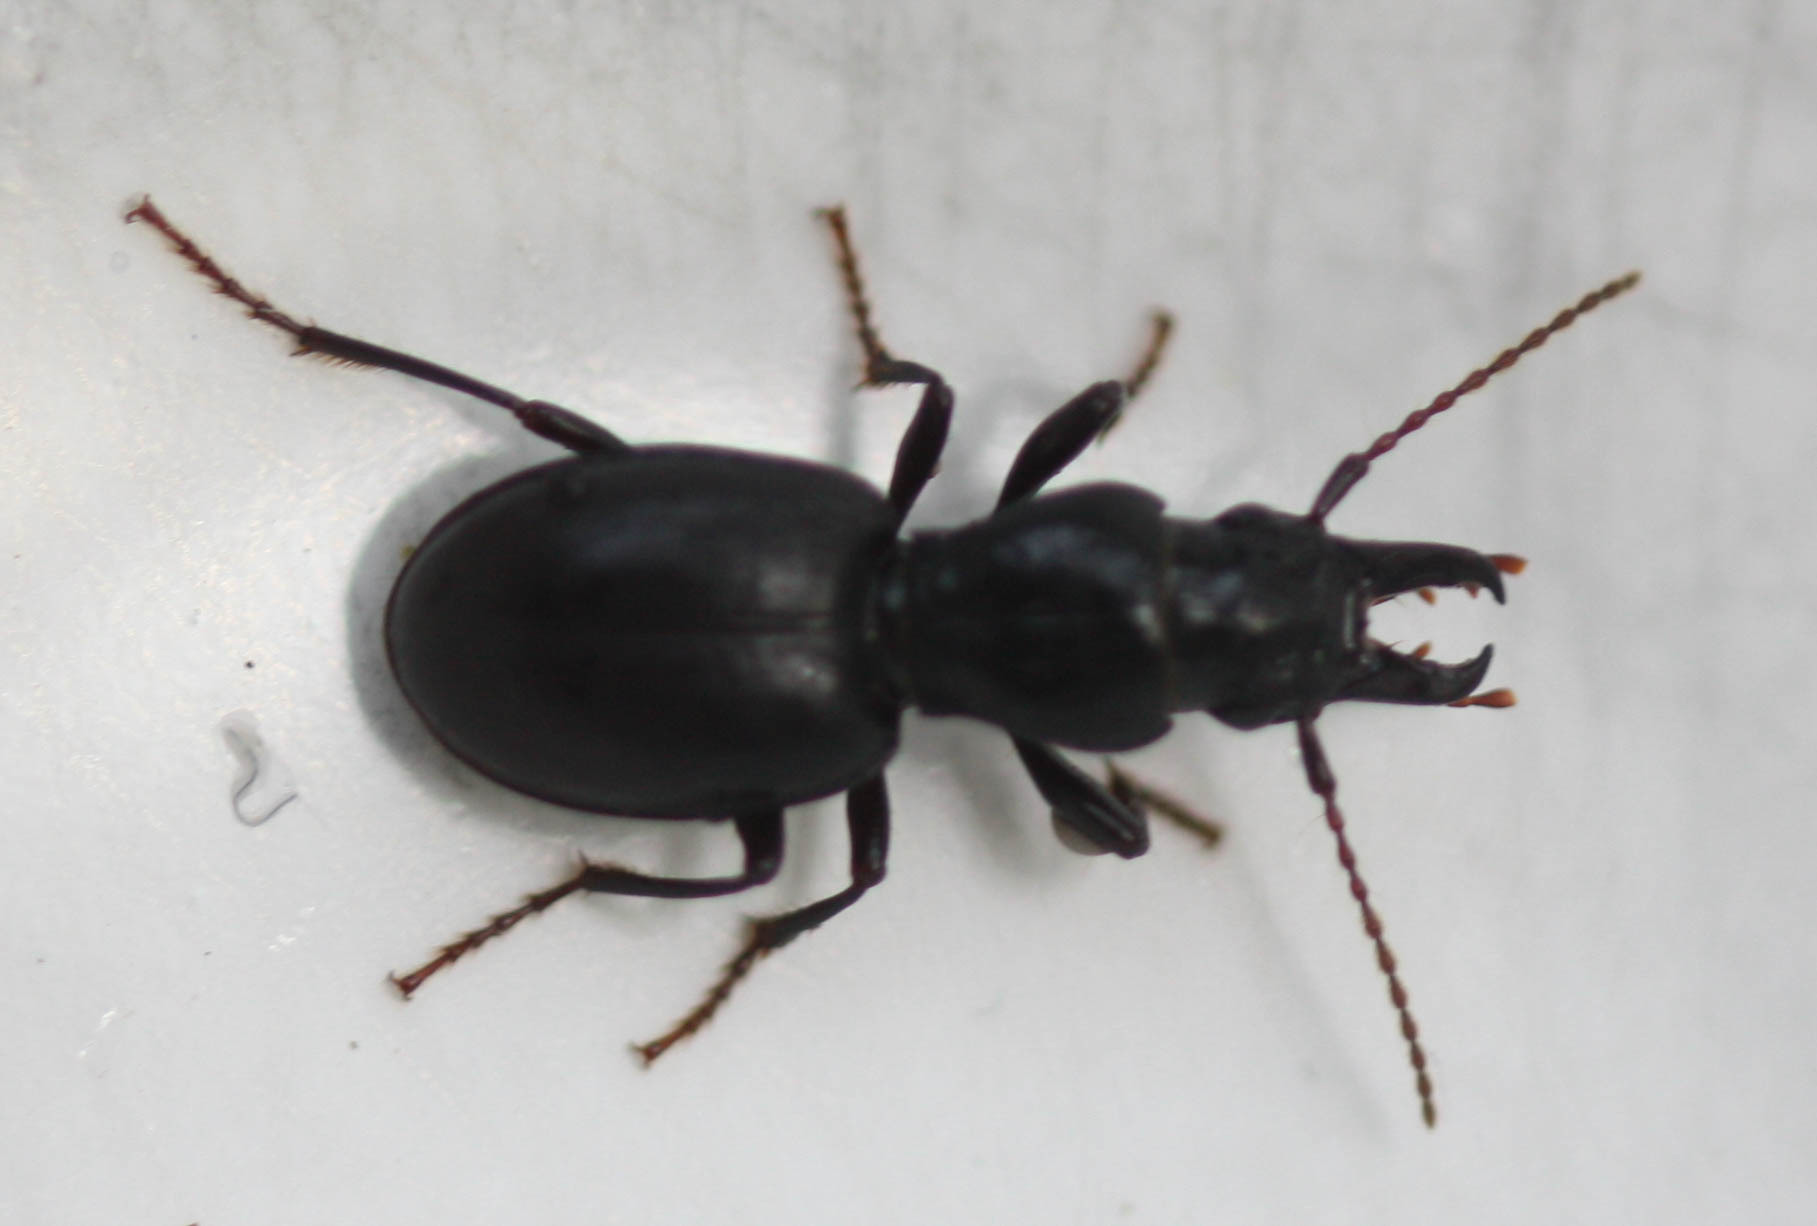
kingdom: Animalia
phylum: Arthropoda
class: Insecta
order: Coleoptera
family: Carabidae
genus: Promecognathus
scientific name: Promecognathus crassus
